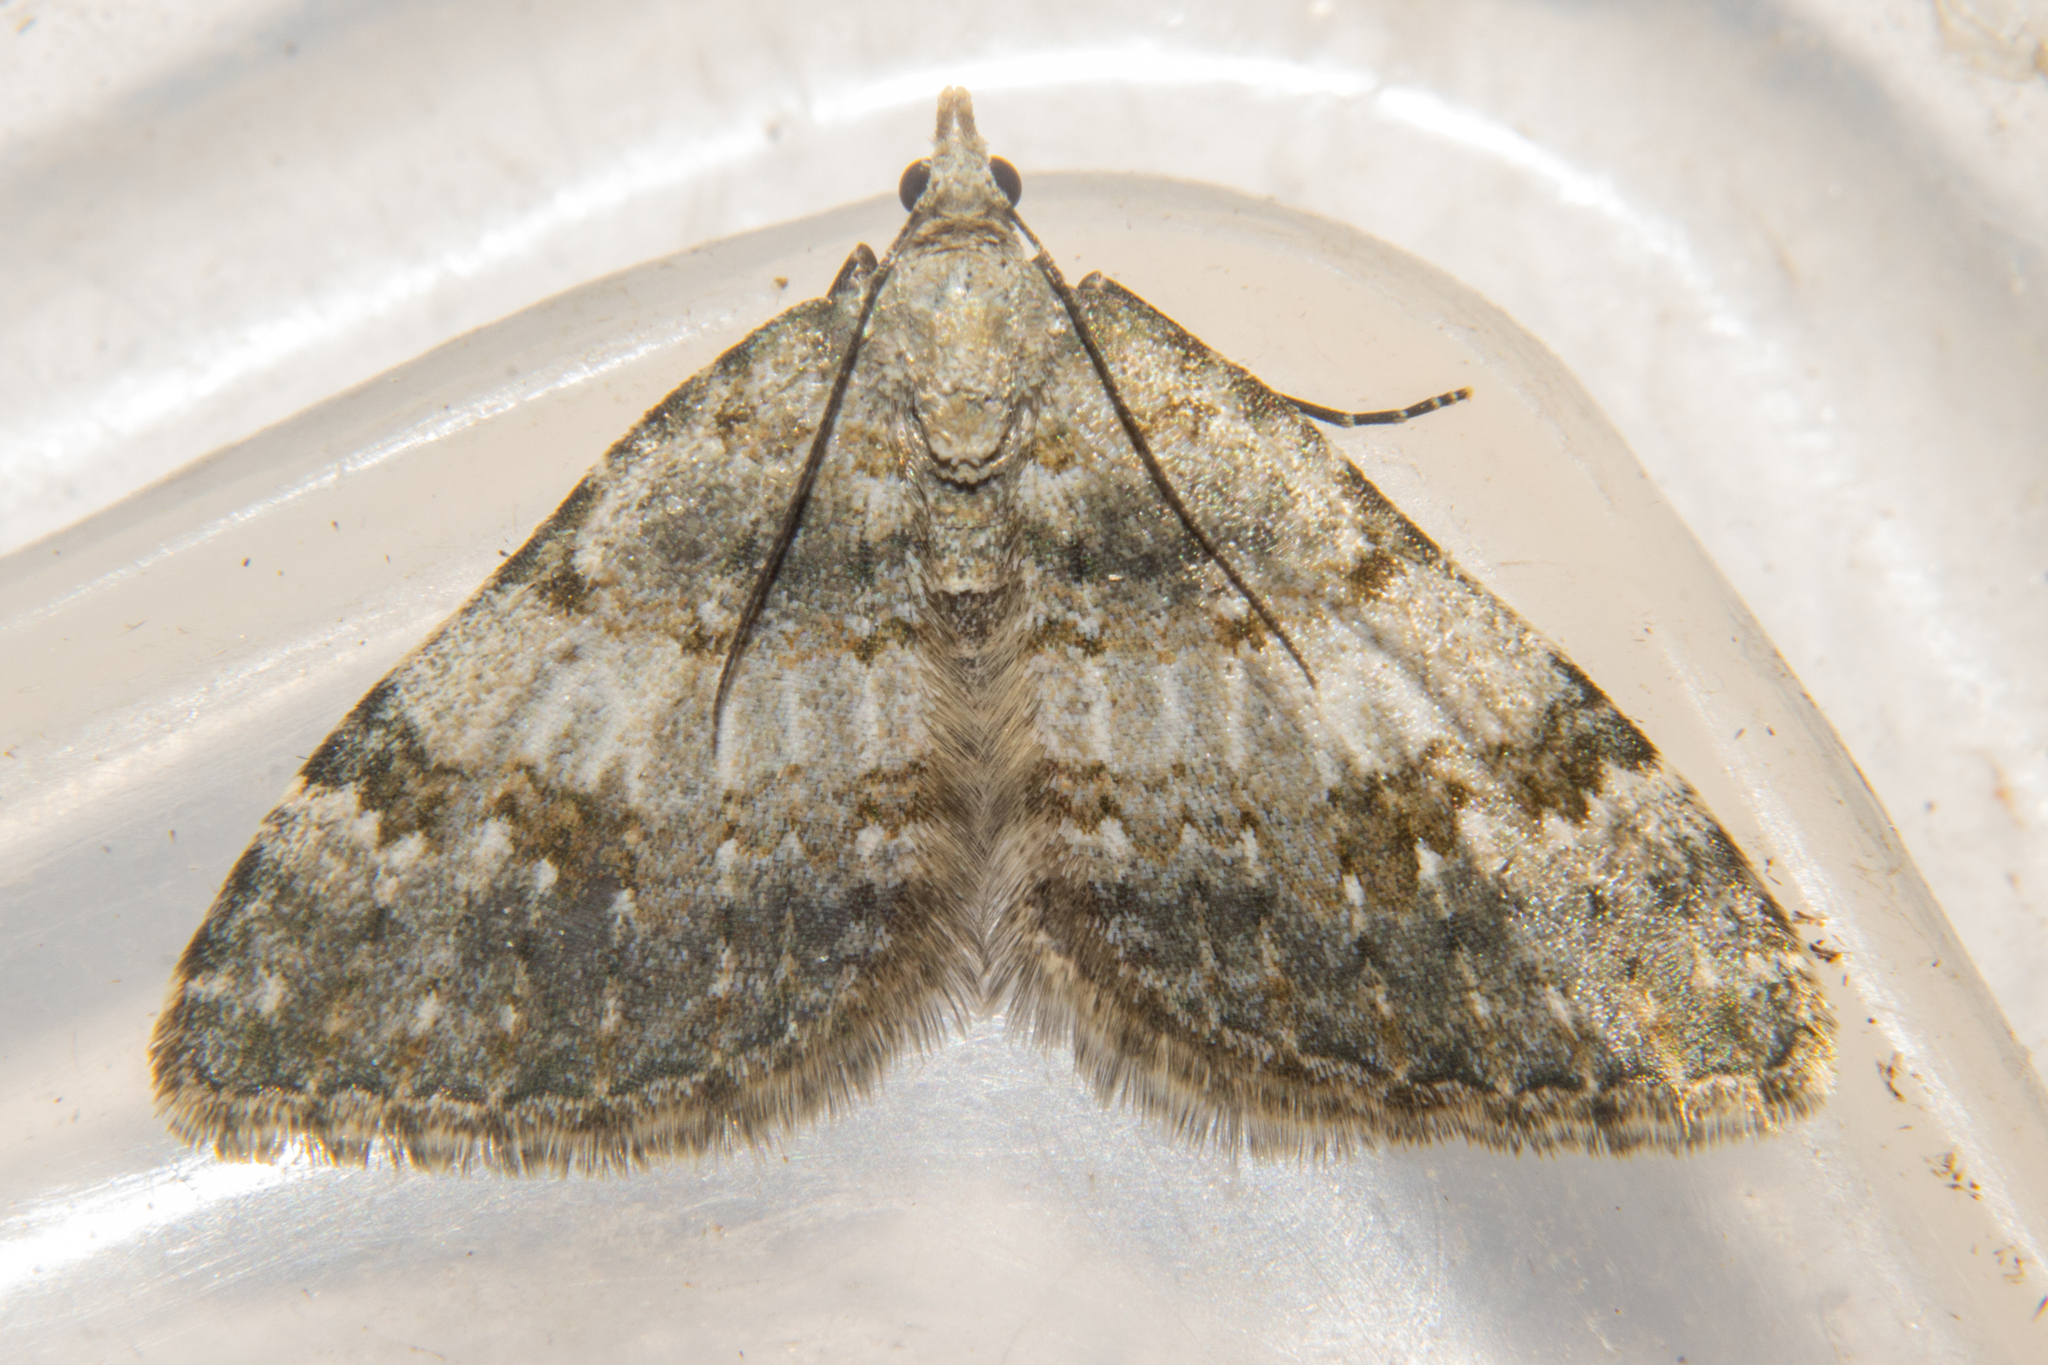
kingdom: Animalia
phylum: Arthropoda
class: Insecta
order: Lepidoptera
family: Geometridae
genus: Helastia
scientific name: Helastia christinae
